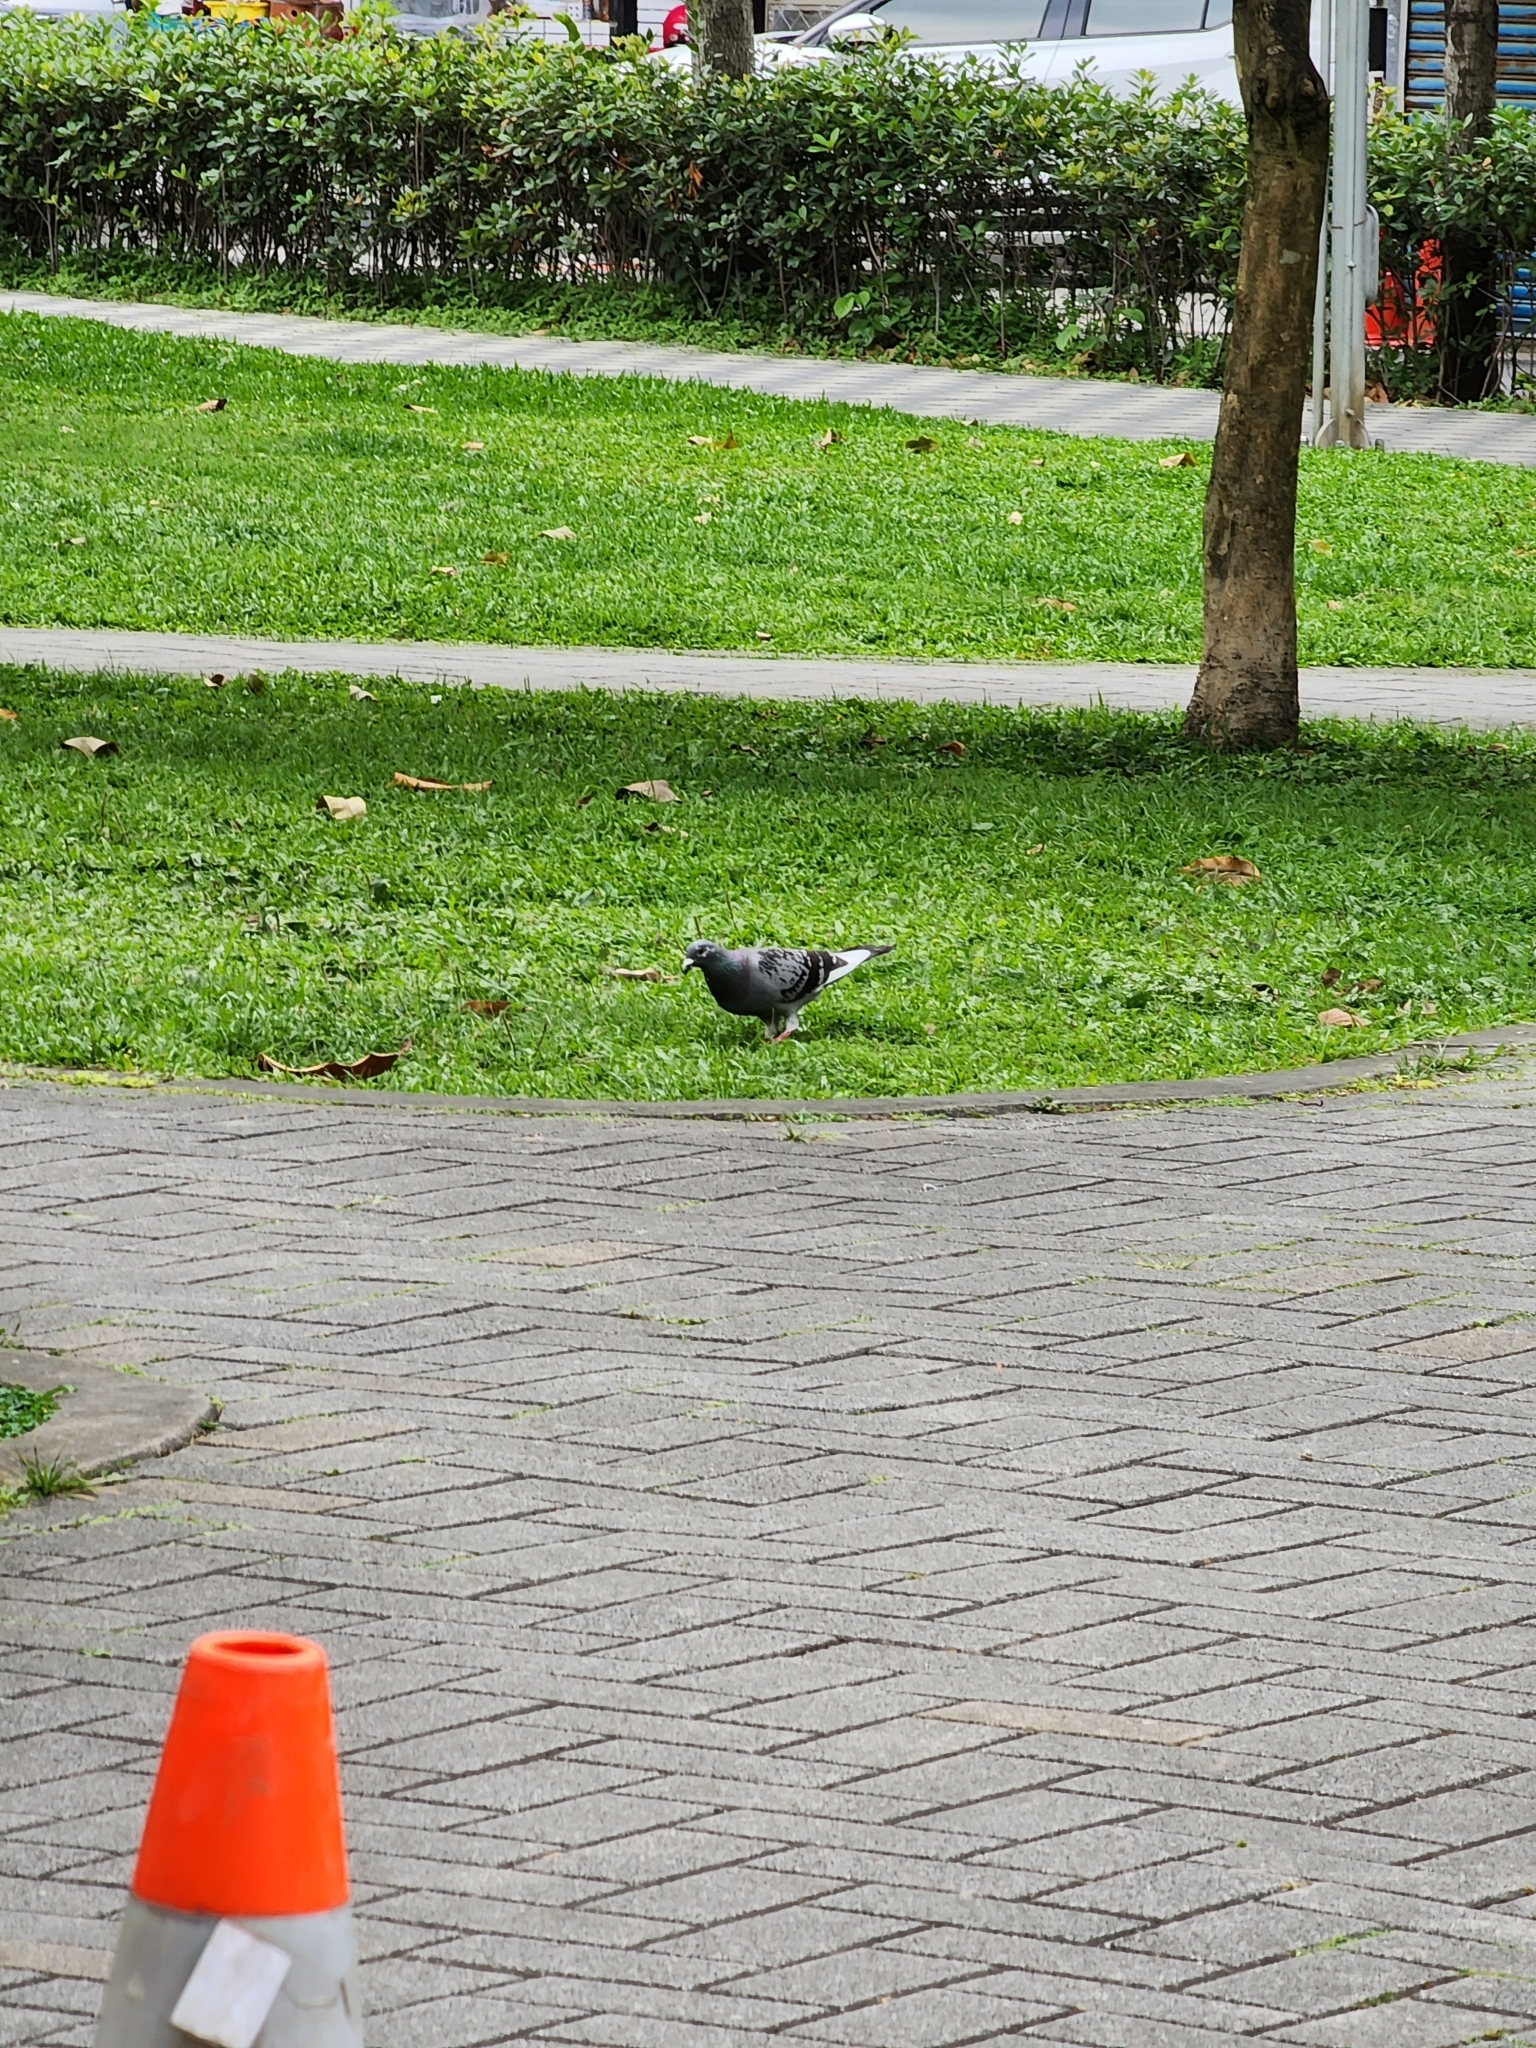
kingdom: Animalia
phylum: Chordata
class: Aves
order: Columbiformes
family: Columbidae
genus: Columba
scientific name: Columba livia
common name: Rock pigeon
